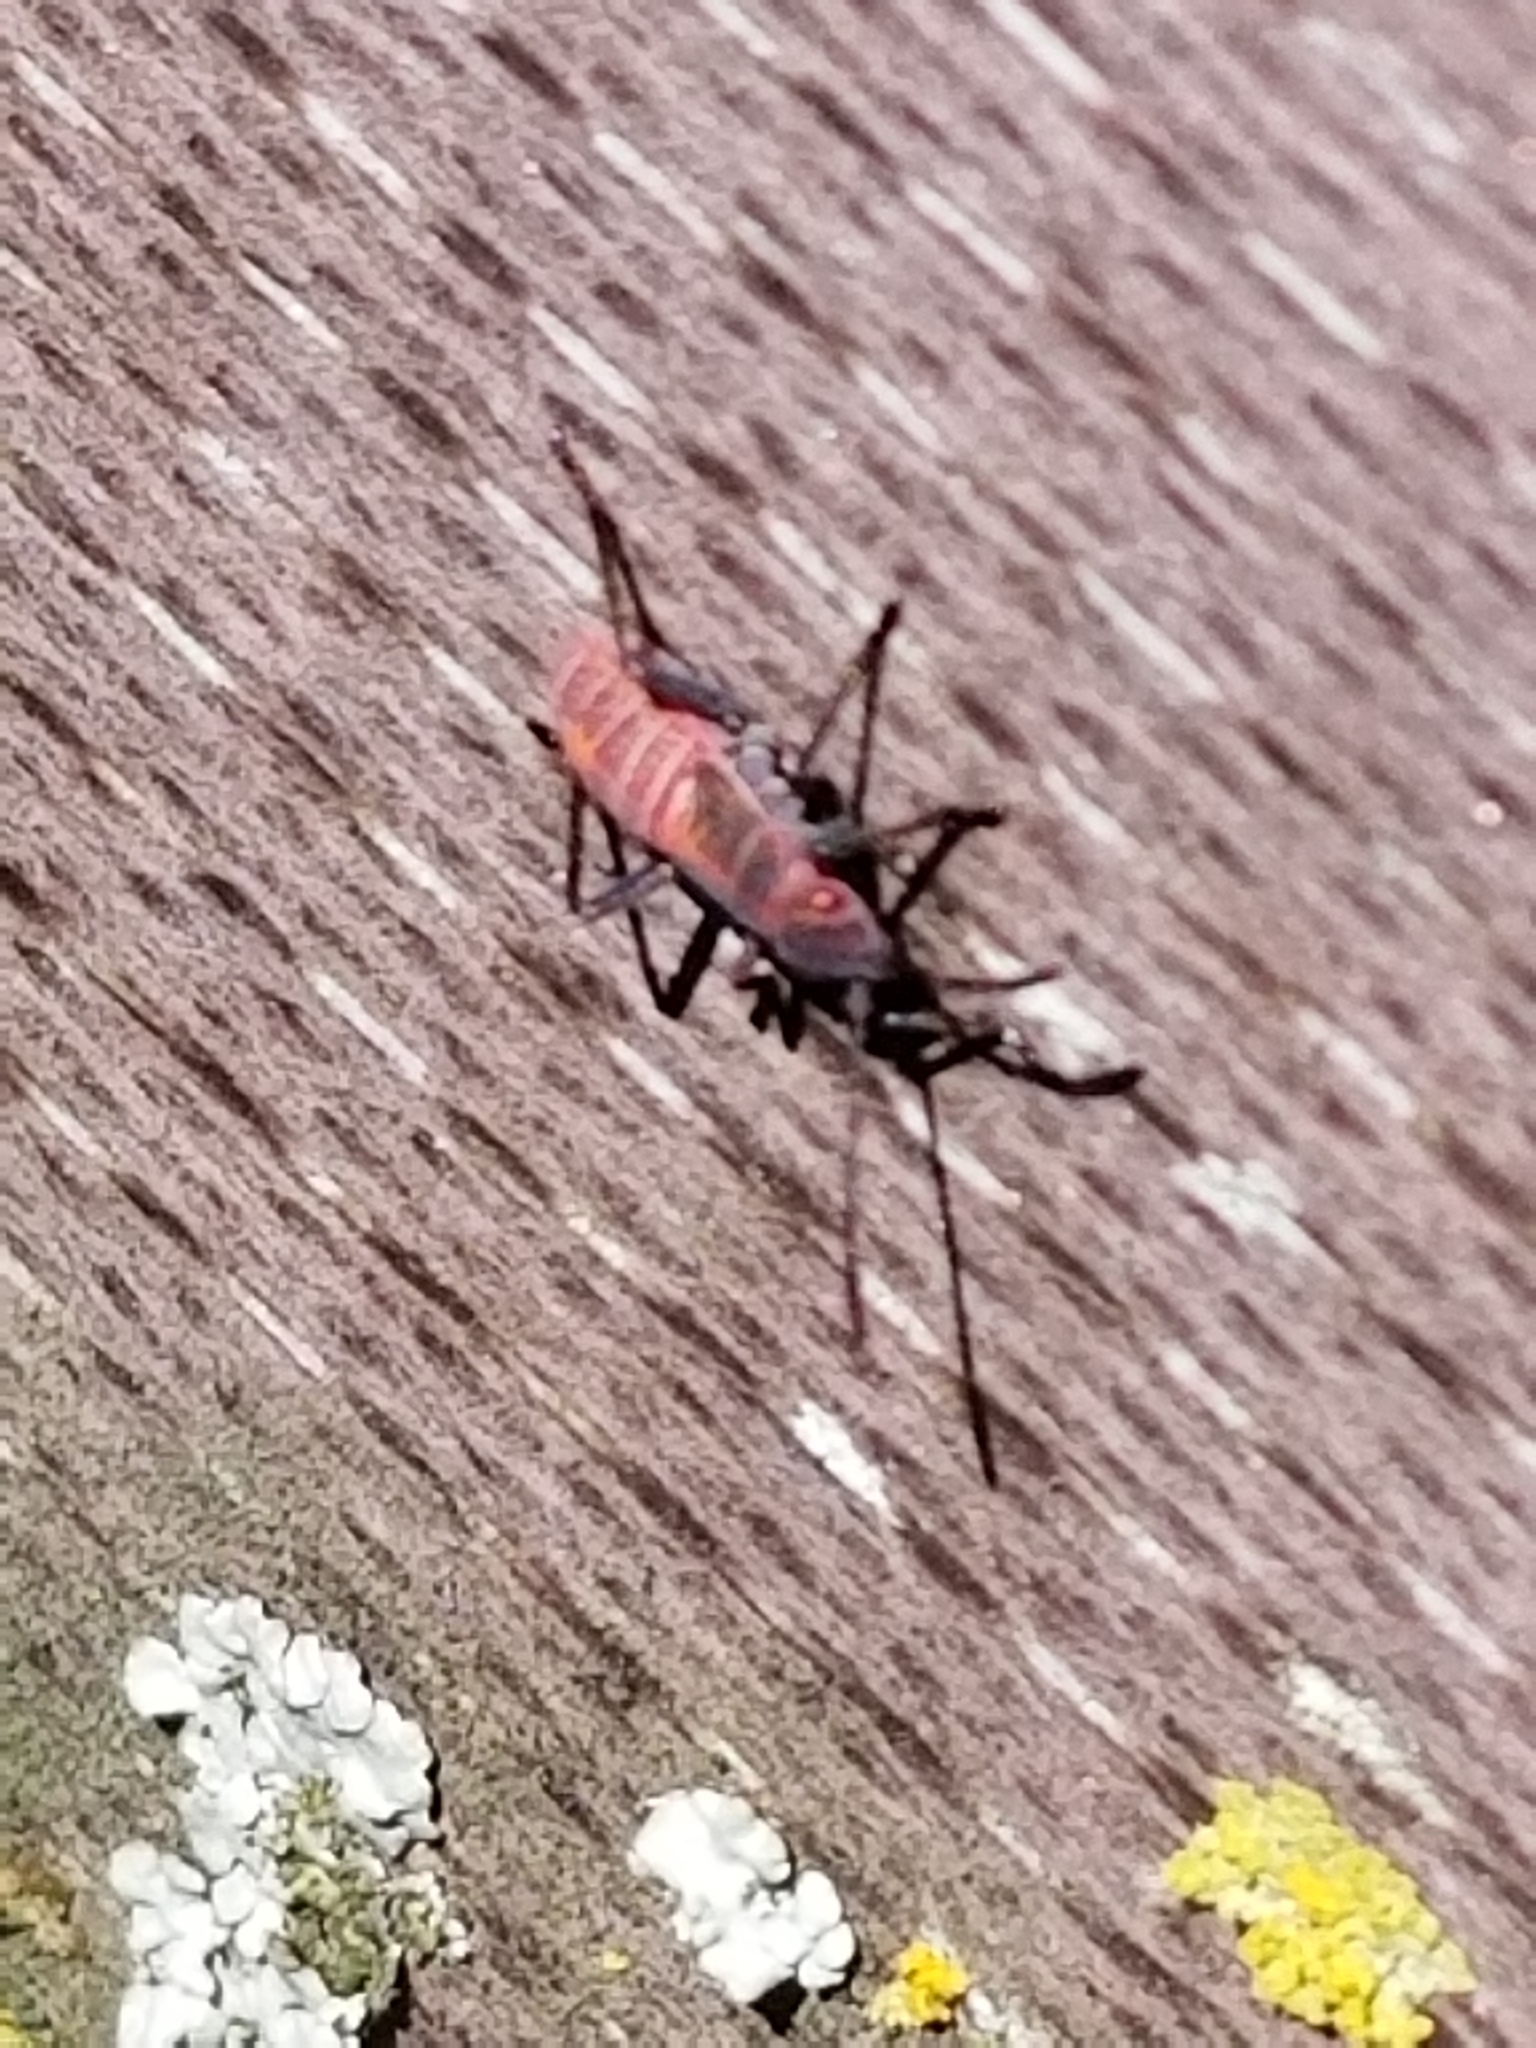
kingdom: Animalia
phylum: Arthropoda
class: Insecta
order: Hemiptera
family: Rhopalidae
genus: Boisea
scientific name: Boisea rubrolineata
